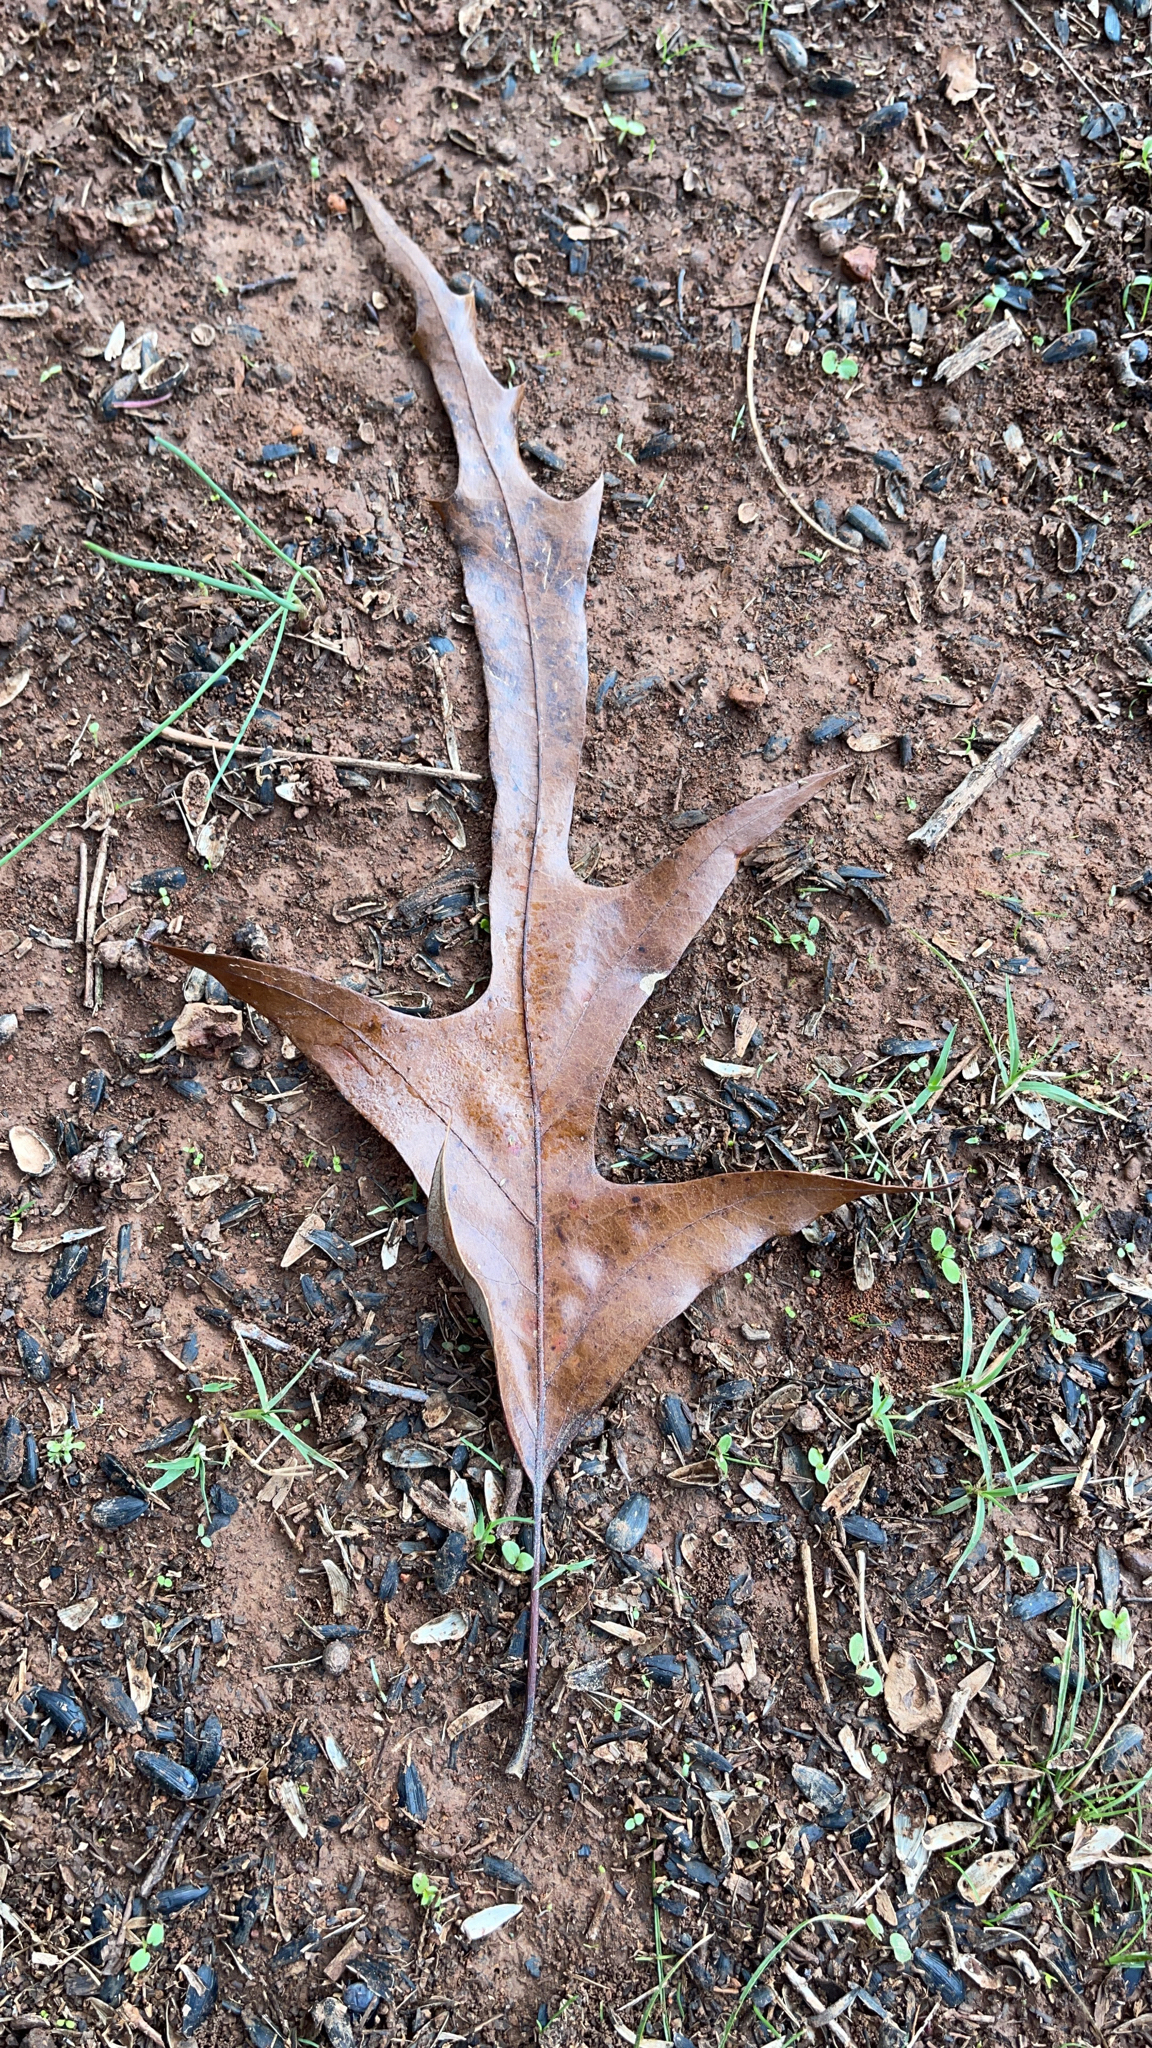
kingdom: Plantae
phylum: Tracheophyta
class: Magnoliopsida
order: Fagales
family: Fagaceae
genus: Quercus
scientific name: Quercus falcata
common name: Southern red oak
